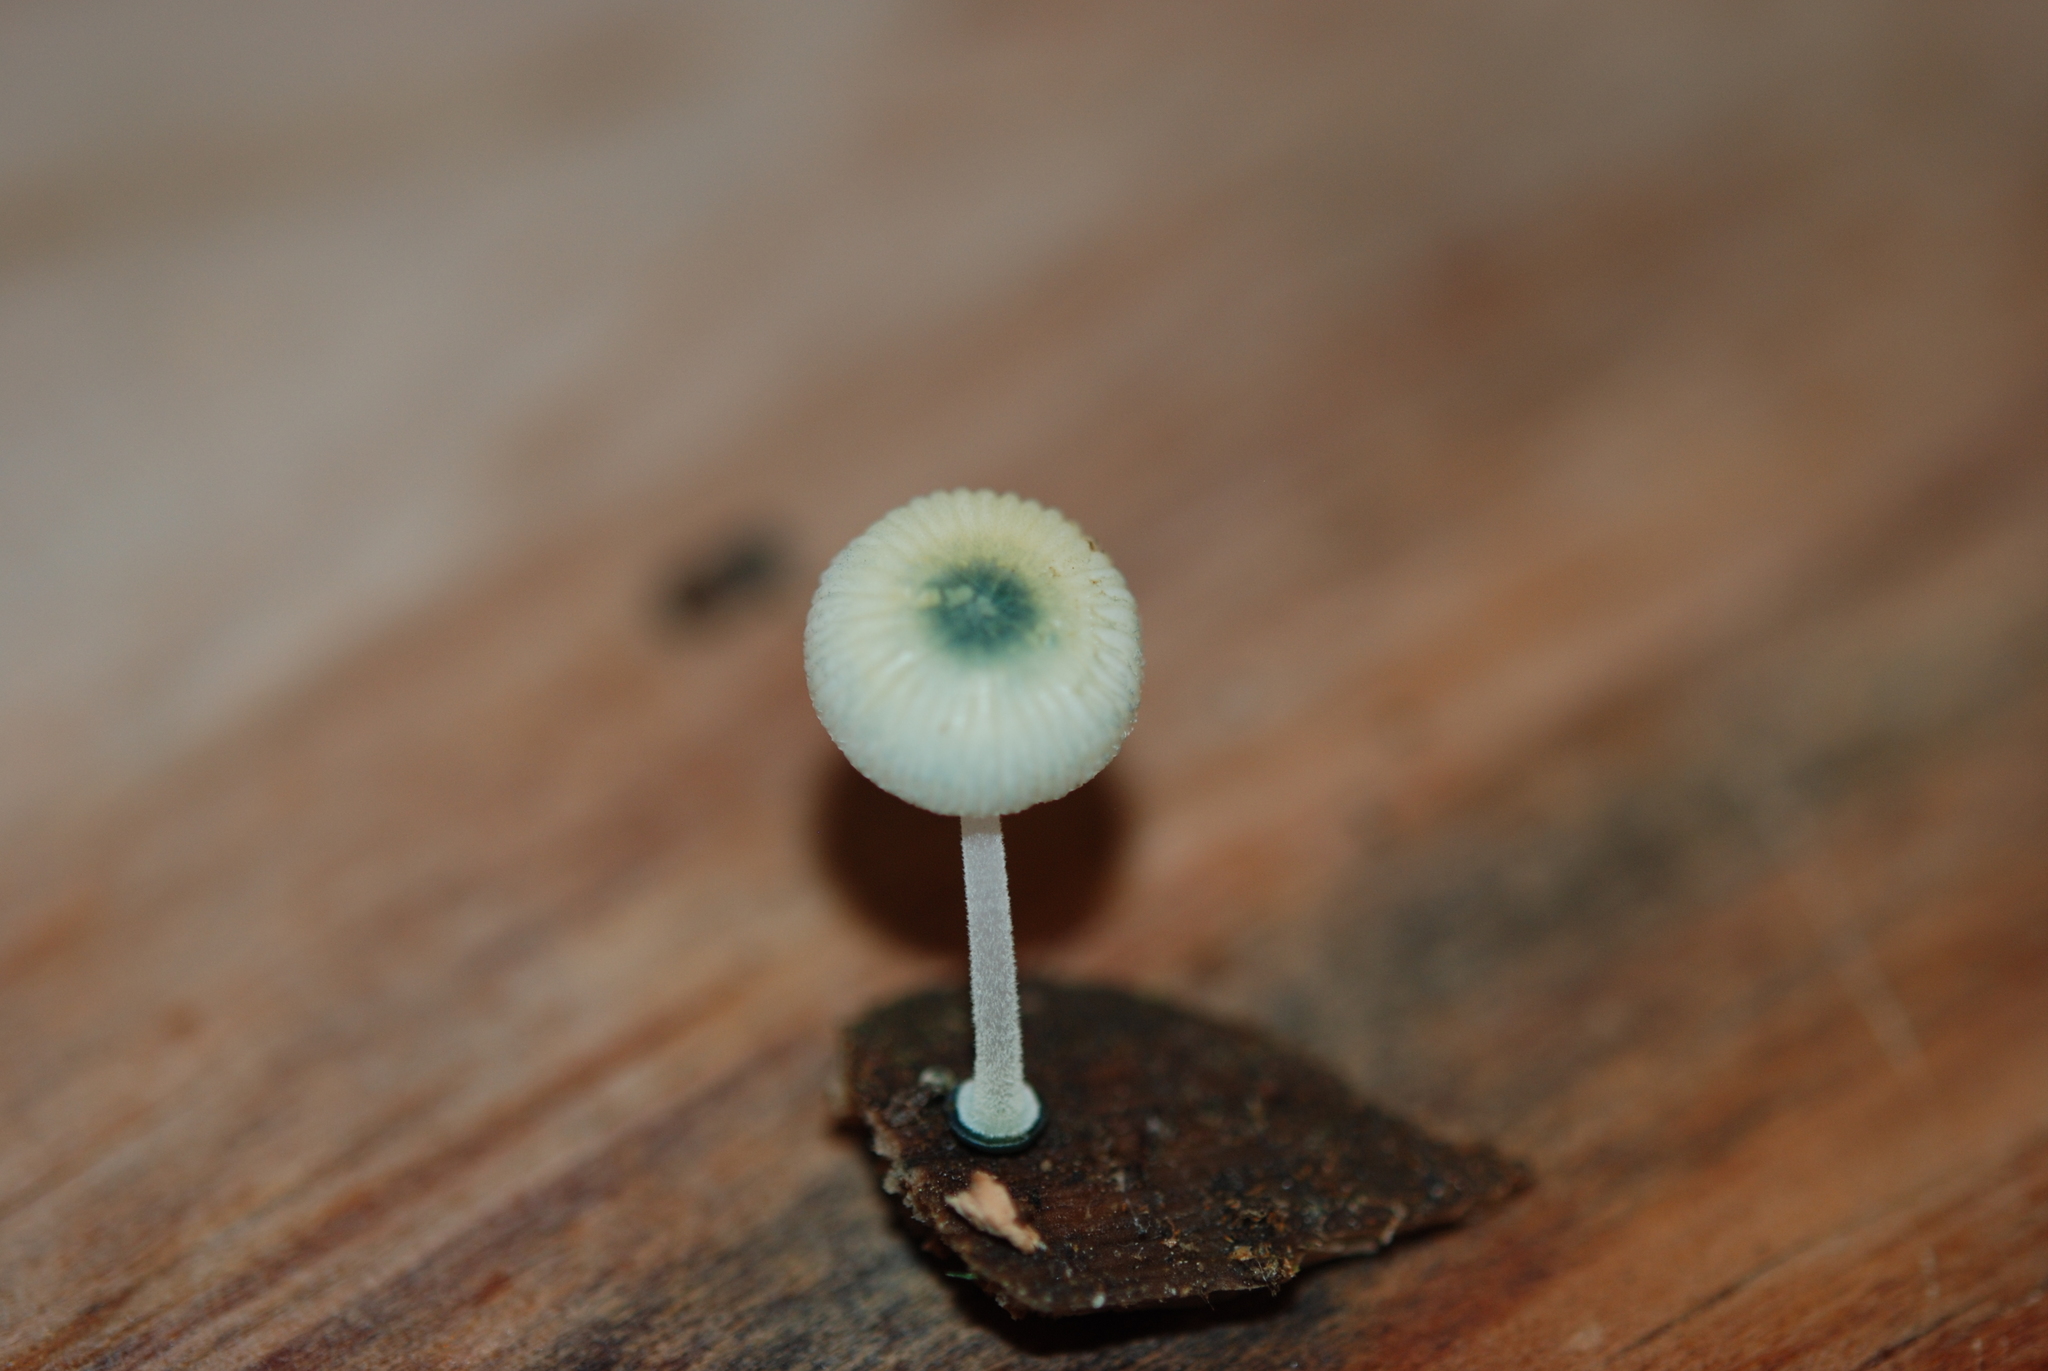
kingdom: Fungi
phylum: Basidiomycota
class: Agaricomycetes
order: Agaricales
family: Mycenaceae
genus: Mycena
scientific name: Mycena interrupta
